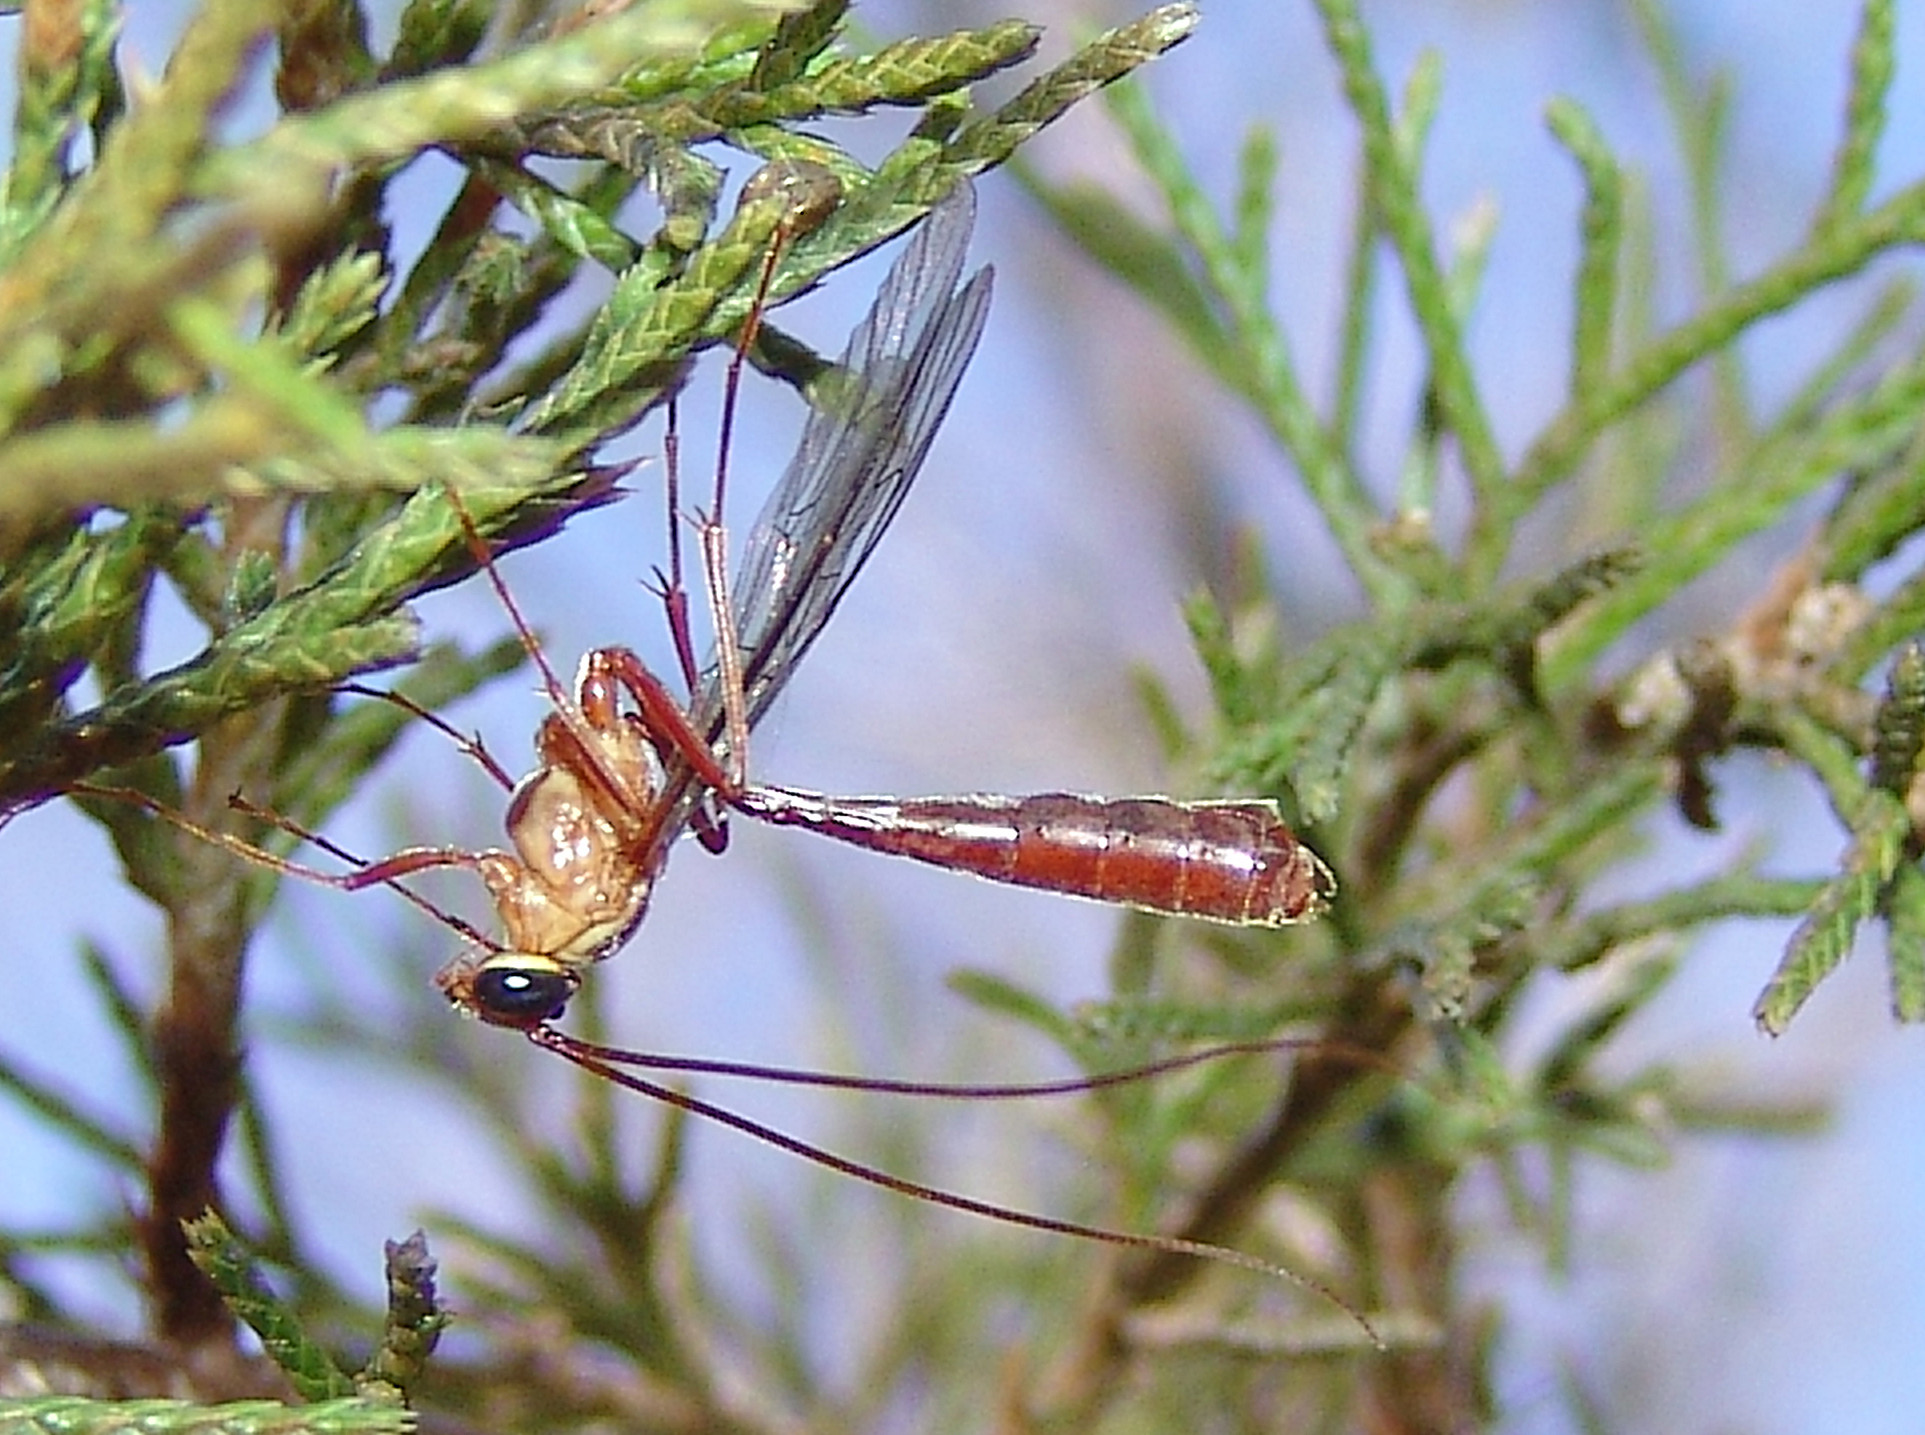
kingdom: Animalia
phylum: Arthropoda
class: Insecta
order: Hymenoptera
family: Ichneumonidae
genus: Ophion
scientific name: Ophion
